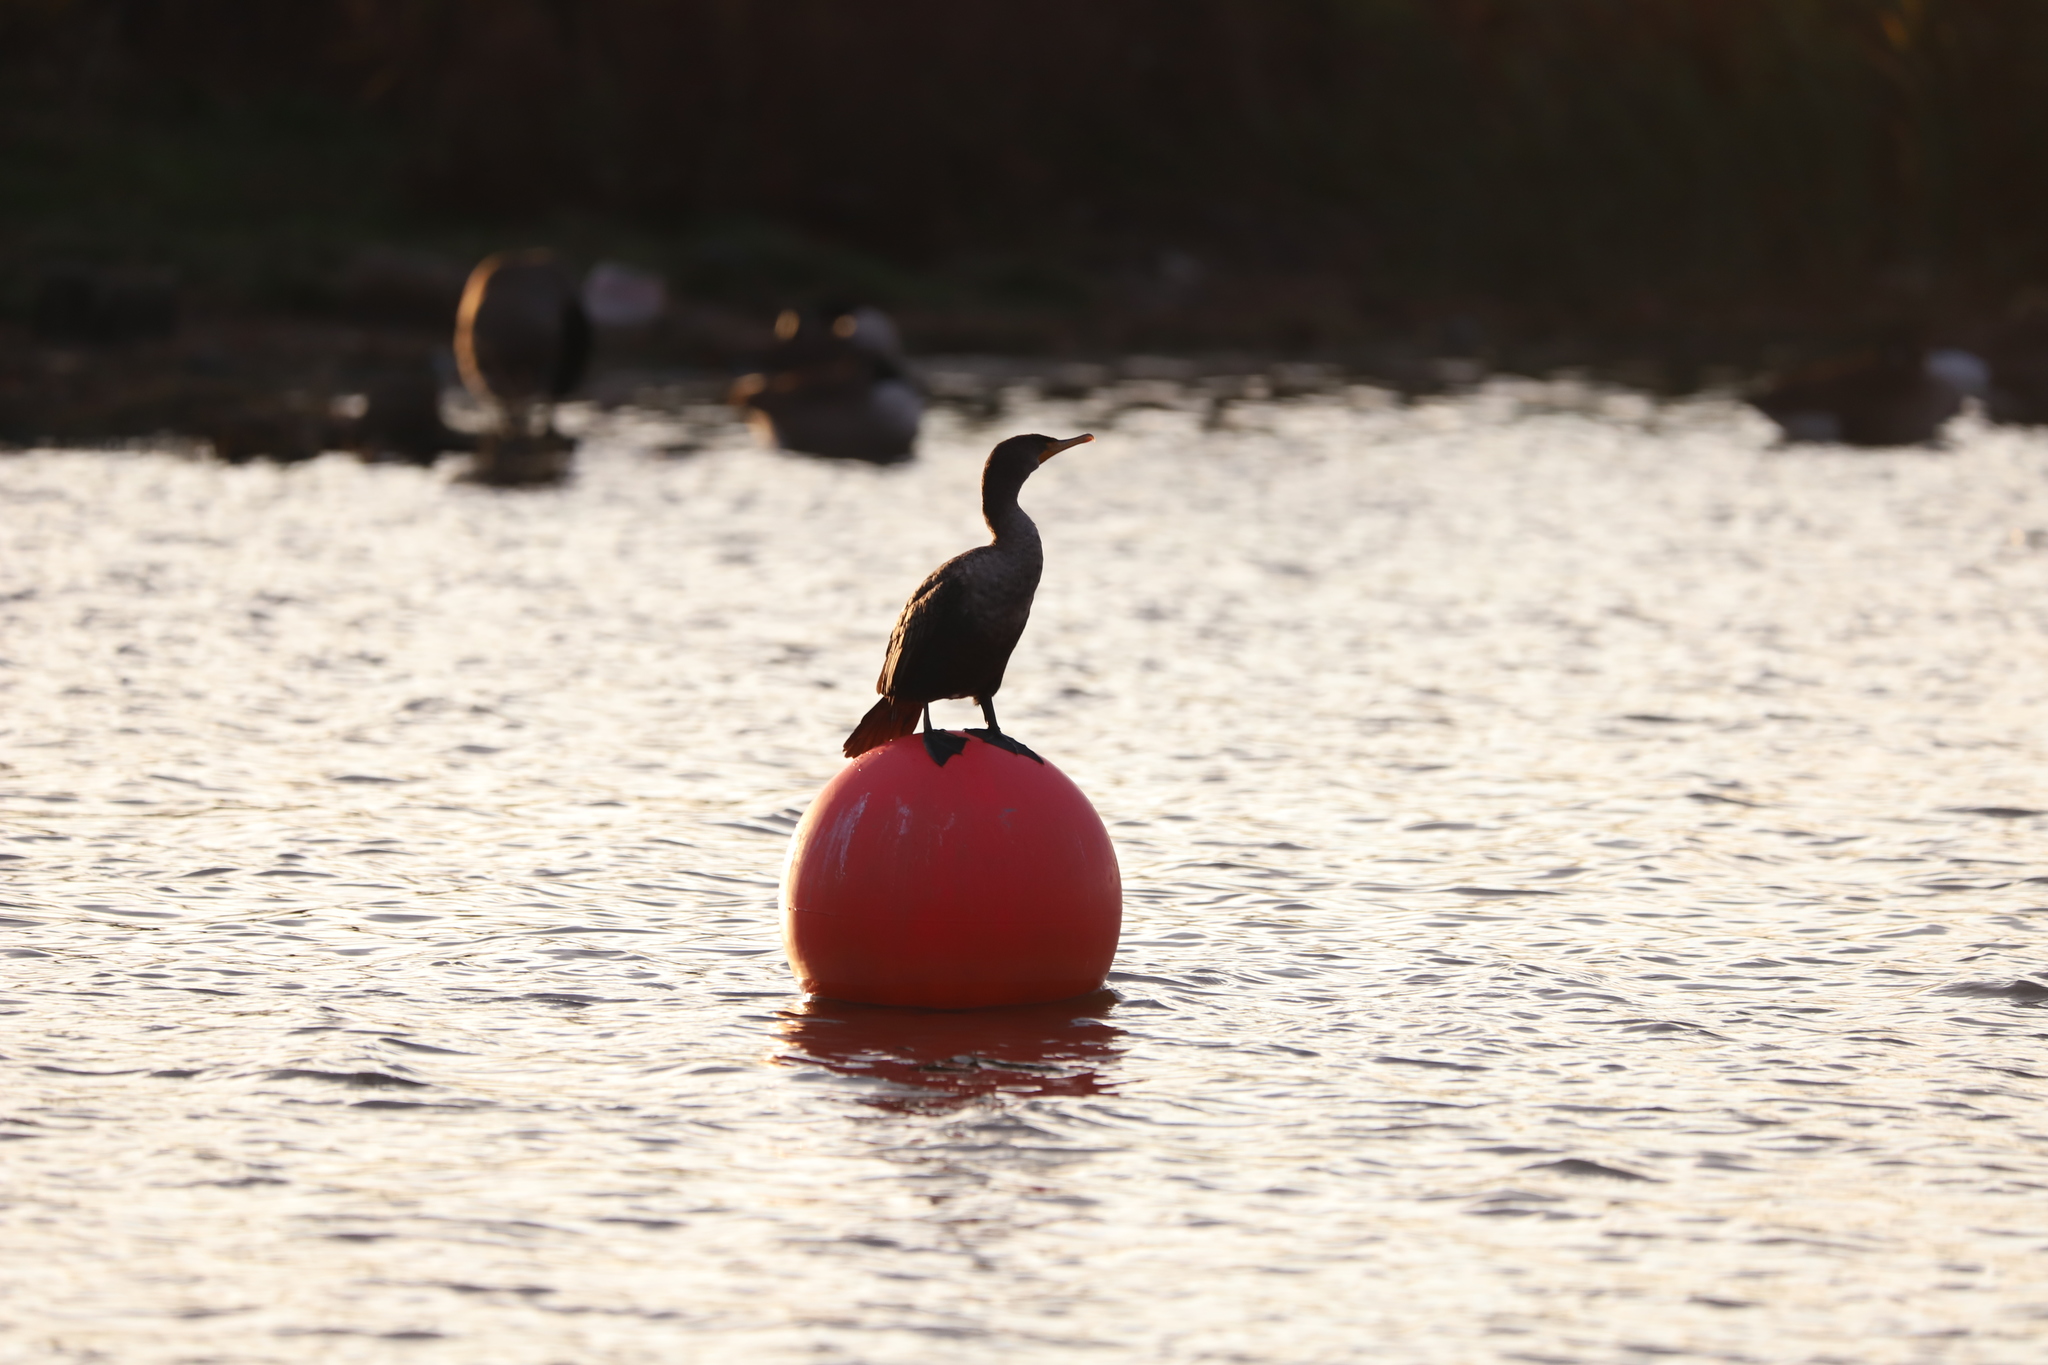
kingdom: Animalia
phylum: Chordata
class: Aves
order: Suliformes
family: Phalacrocoracidae
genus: Phalacrocorax
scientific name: Phalacrocorax auritus
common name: Double-crested cormorant
